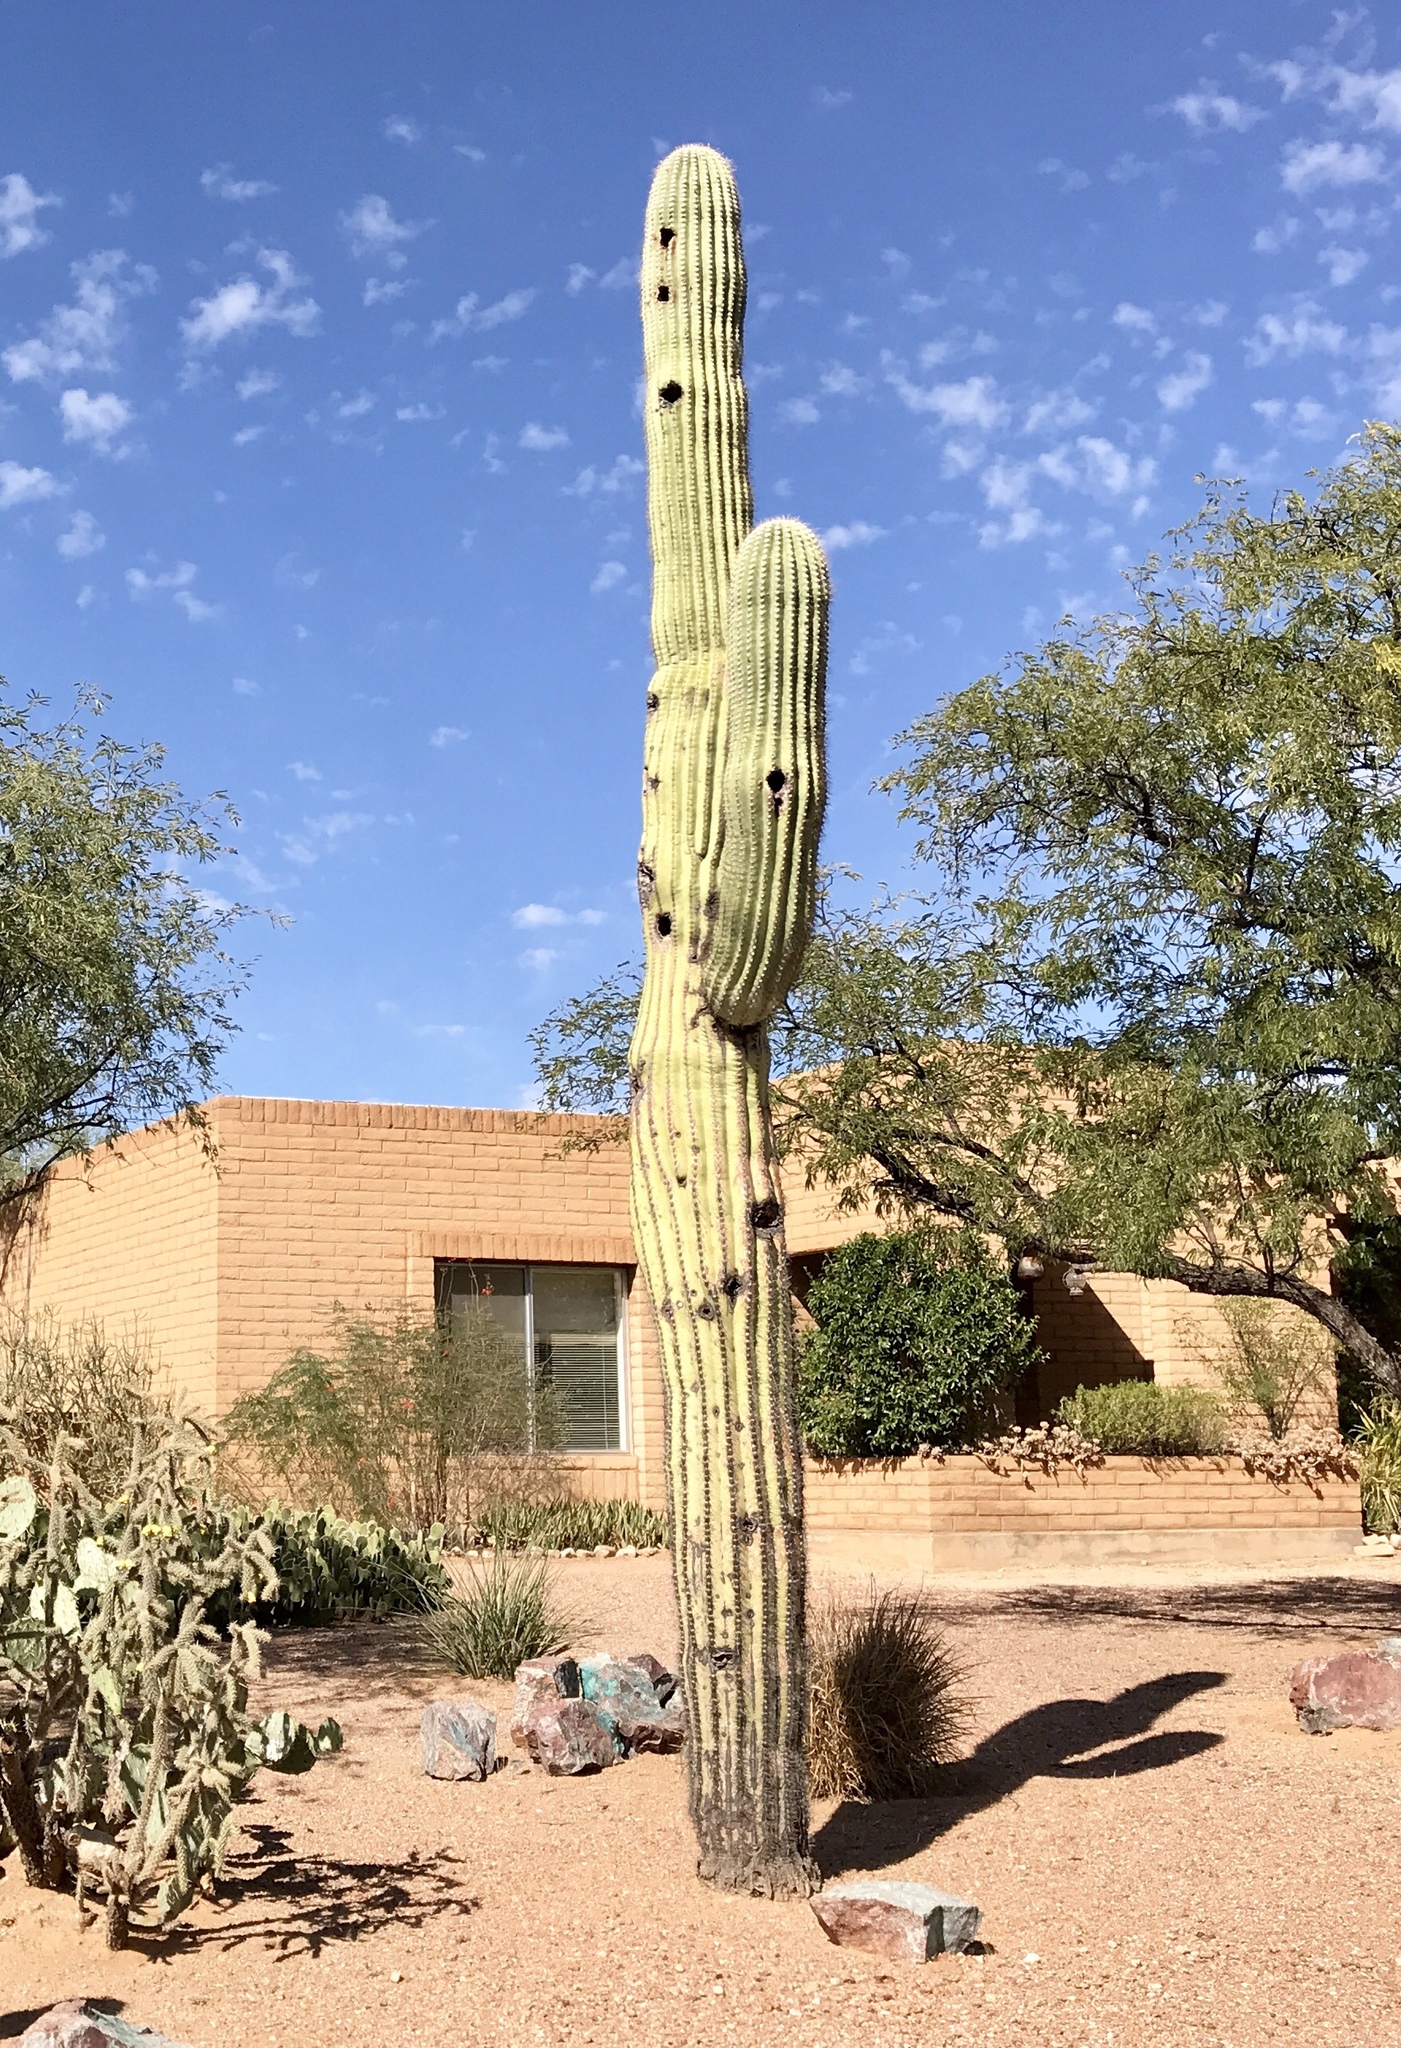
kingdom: Plantae
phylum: Tracheophyta
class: Magnoliopsida
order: Caryophyllales
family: Cactaceae
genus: Carnegiea
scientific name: Carnegiea gigantea
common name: Saguaro
